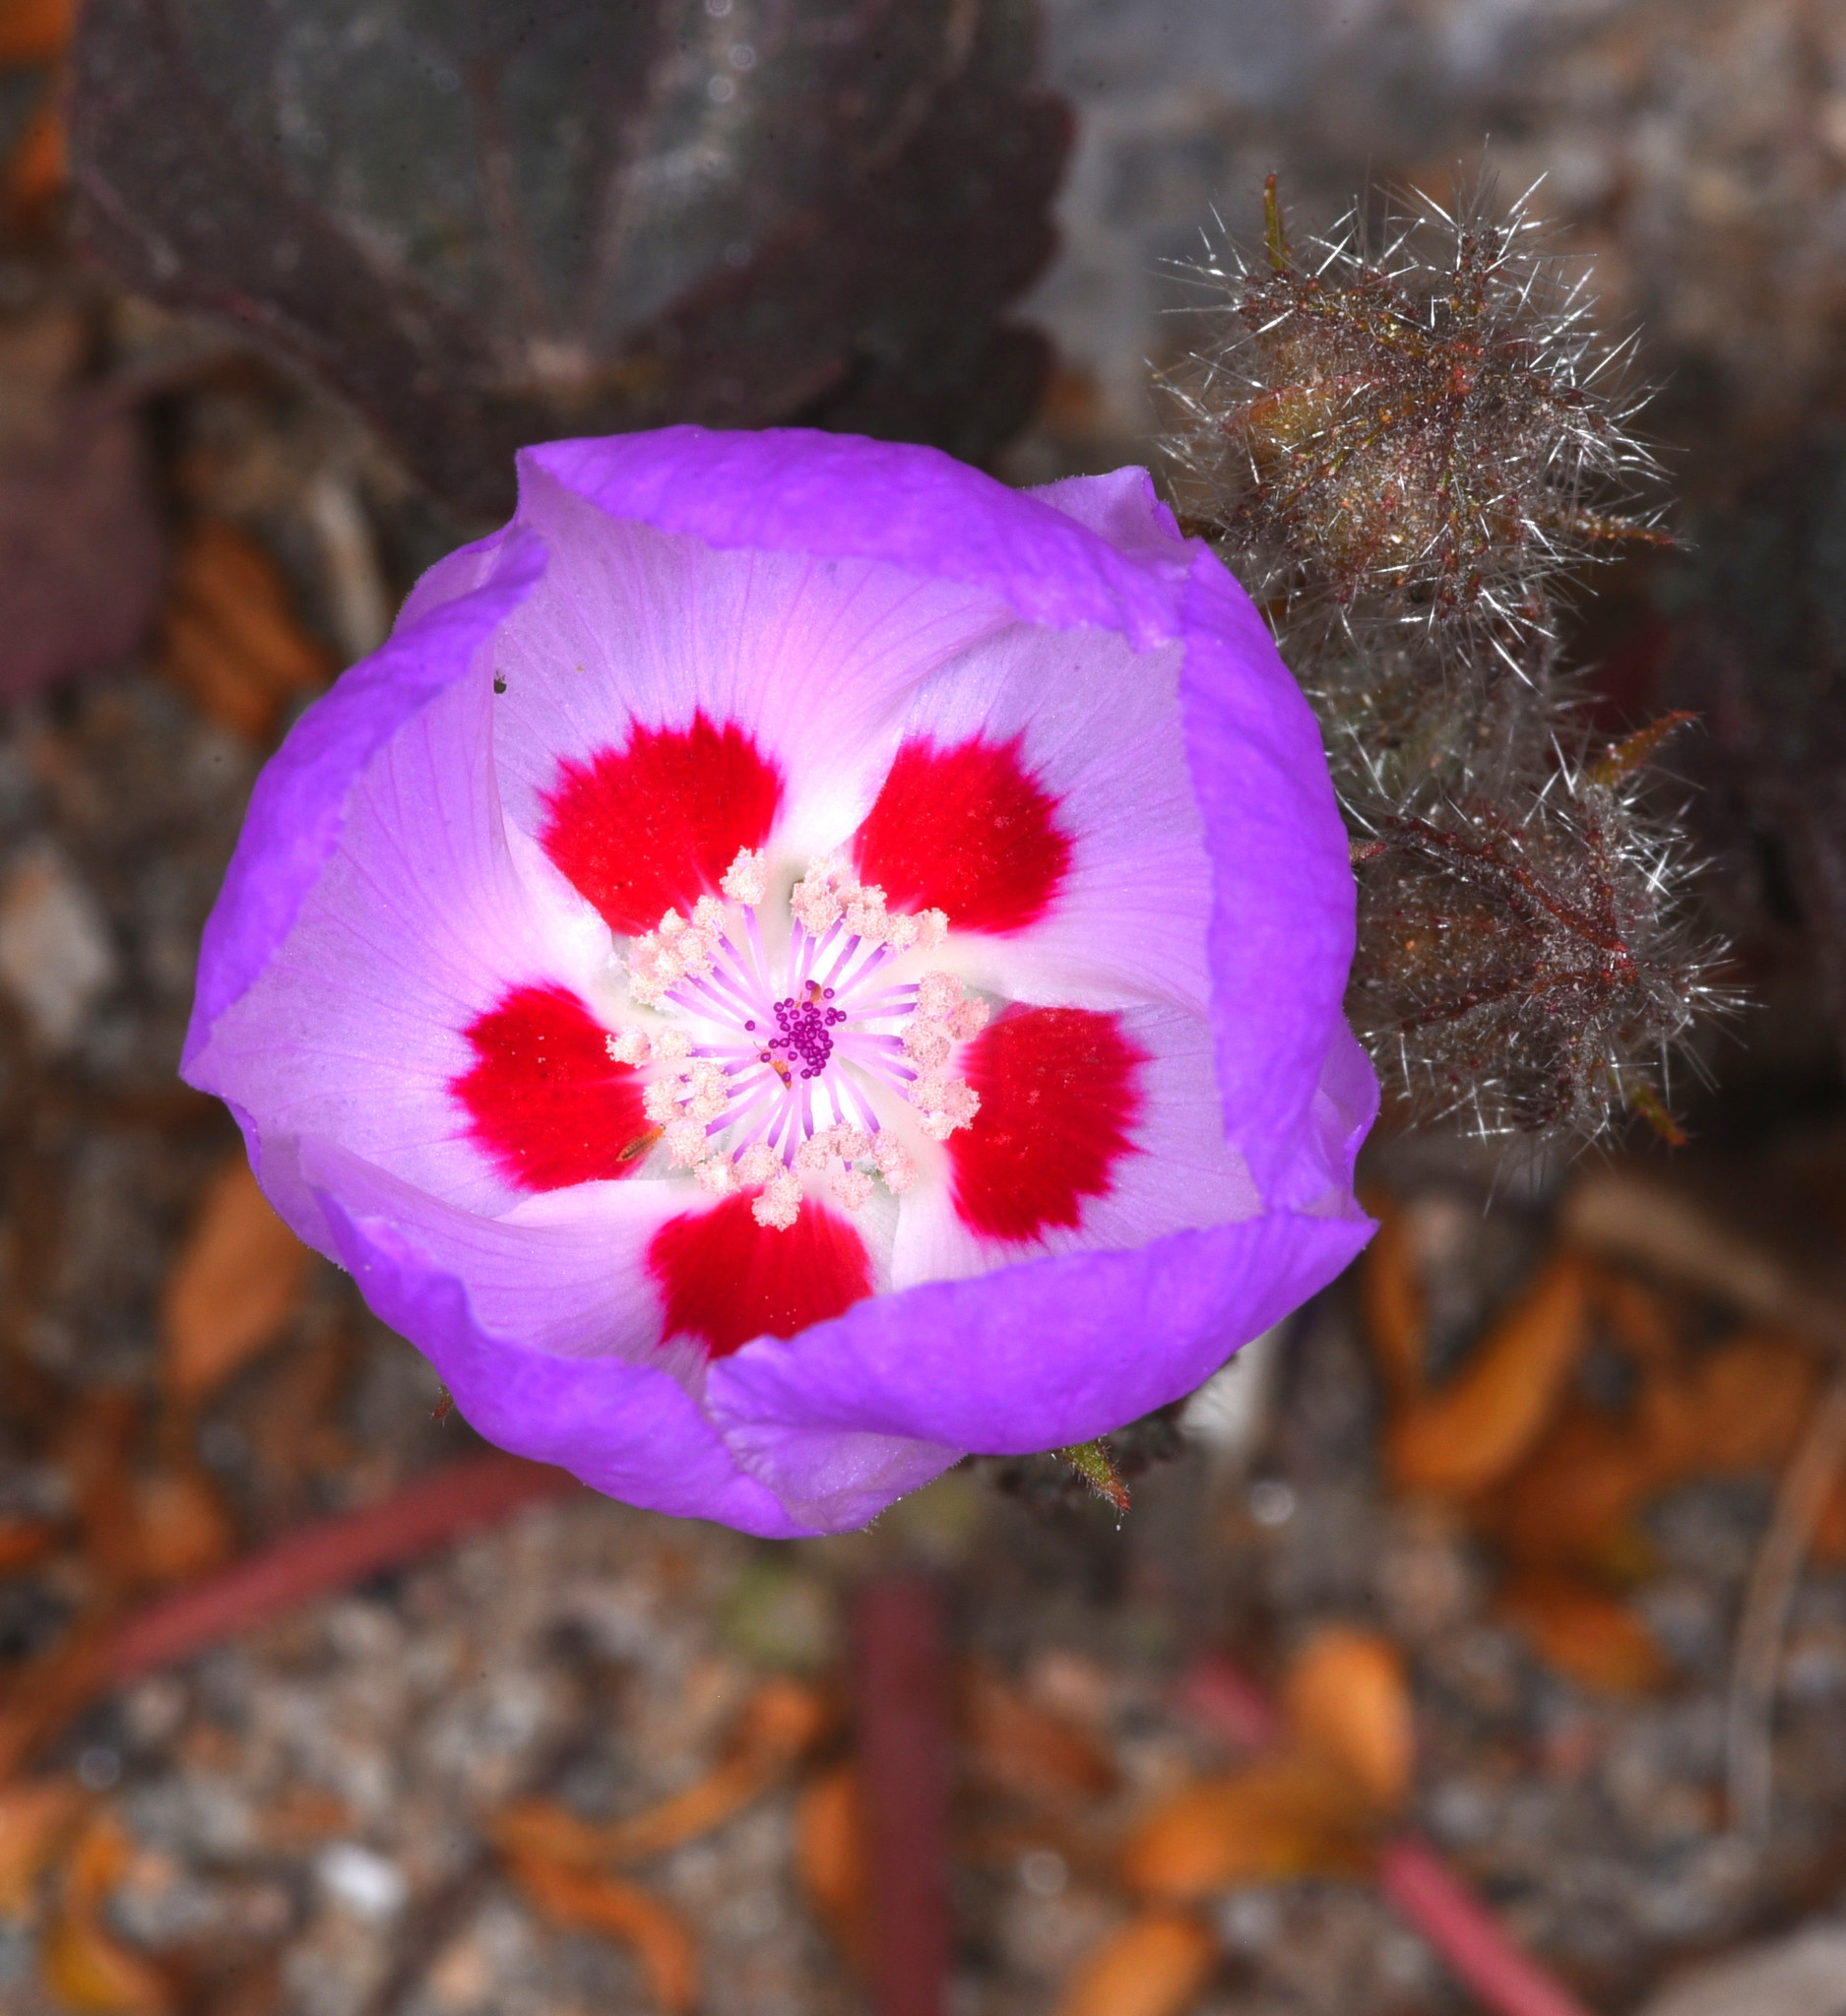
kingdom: Plantae
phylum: Tracheophyta
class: Magnoliopsida
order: Malvales
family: Malvaceae
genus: Eremalche
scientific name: Eremalche rotundifolia
